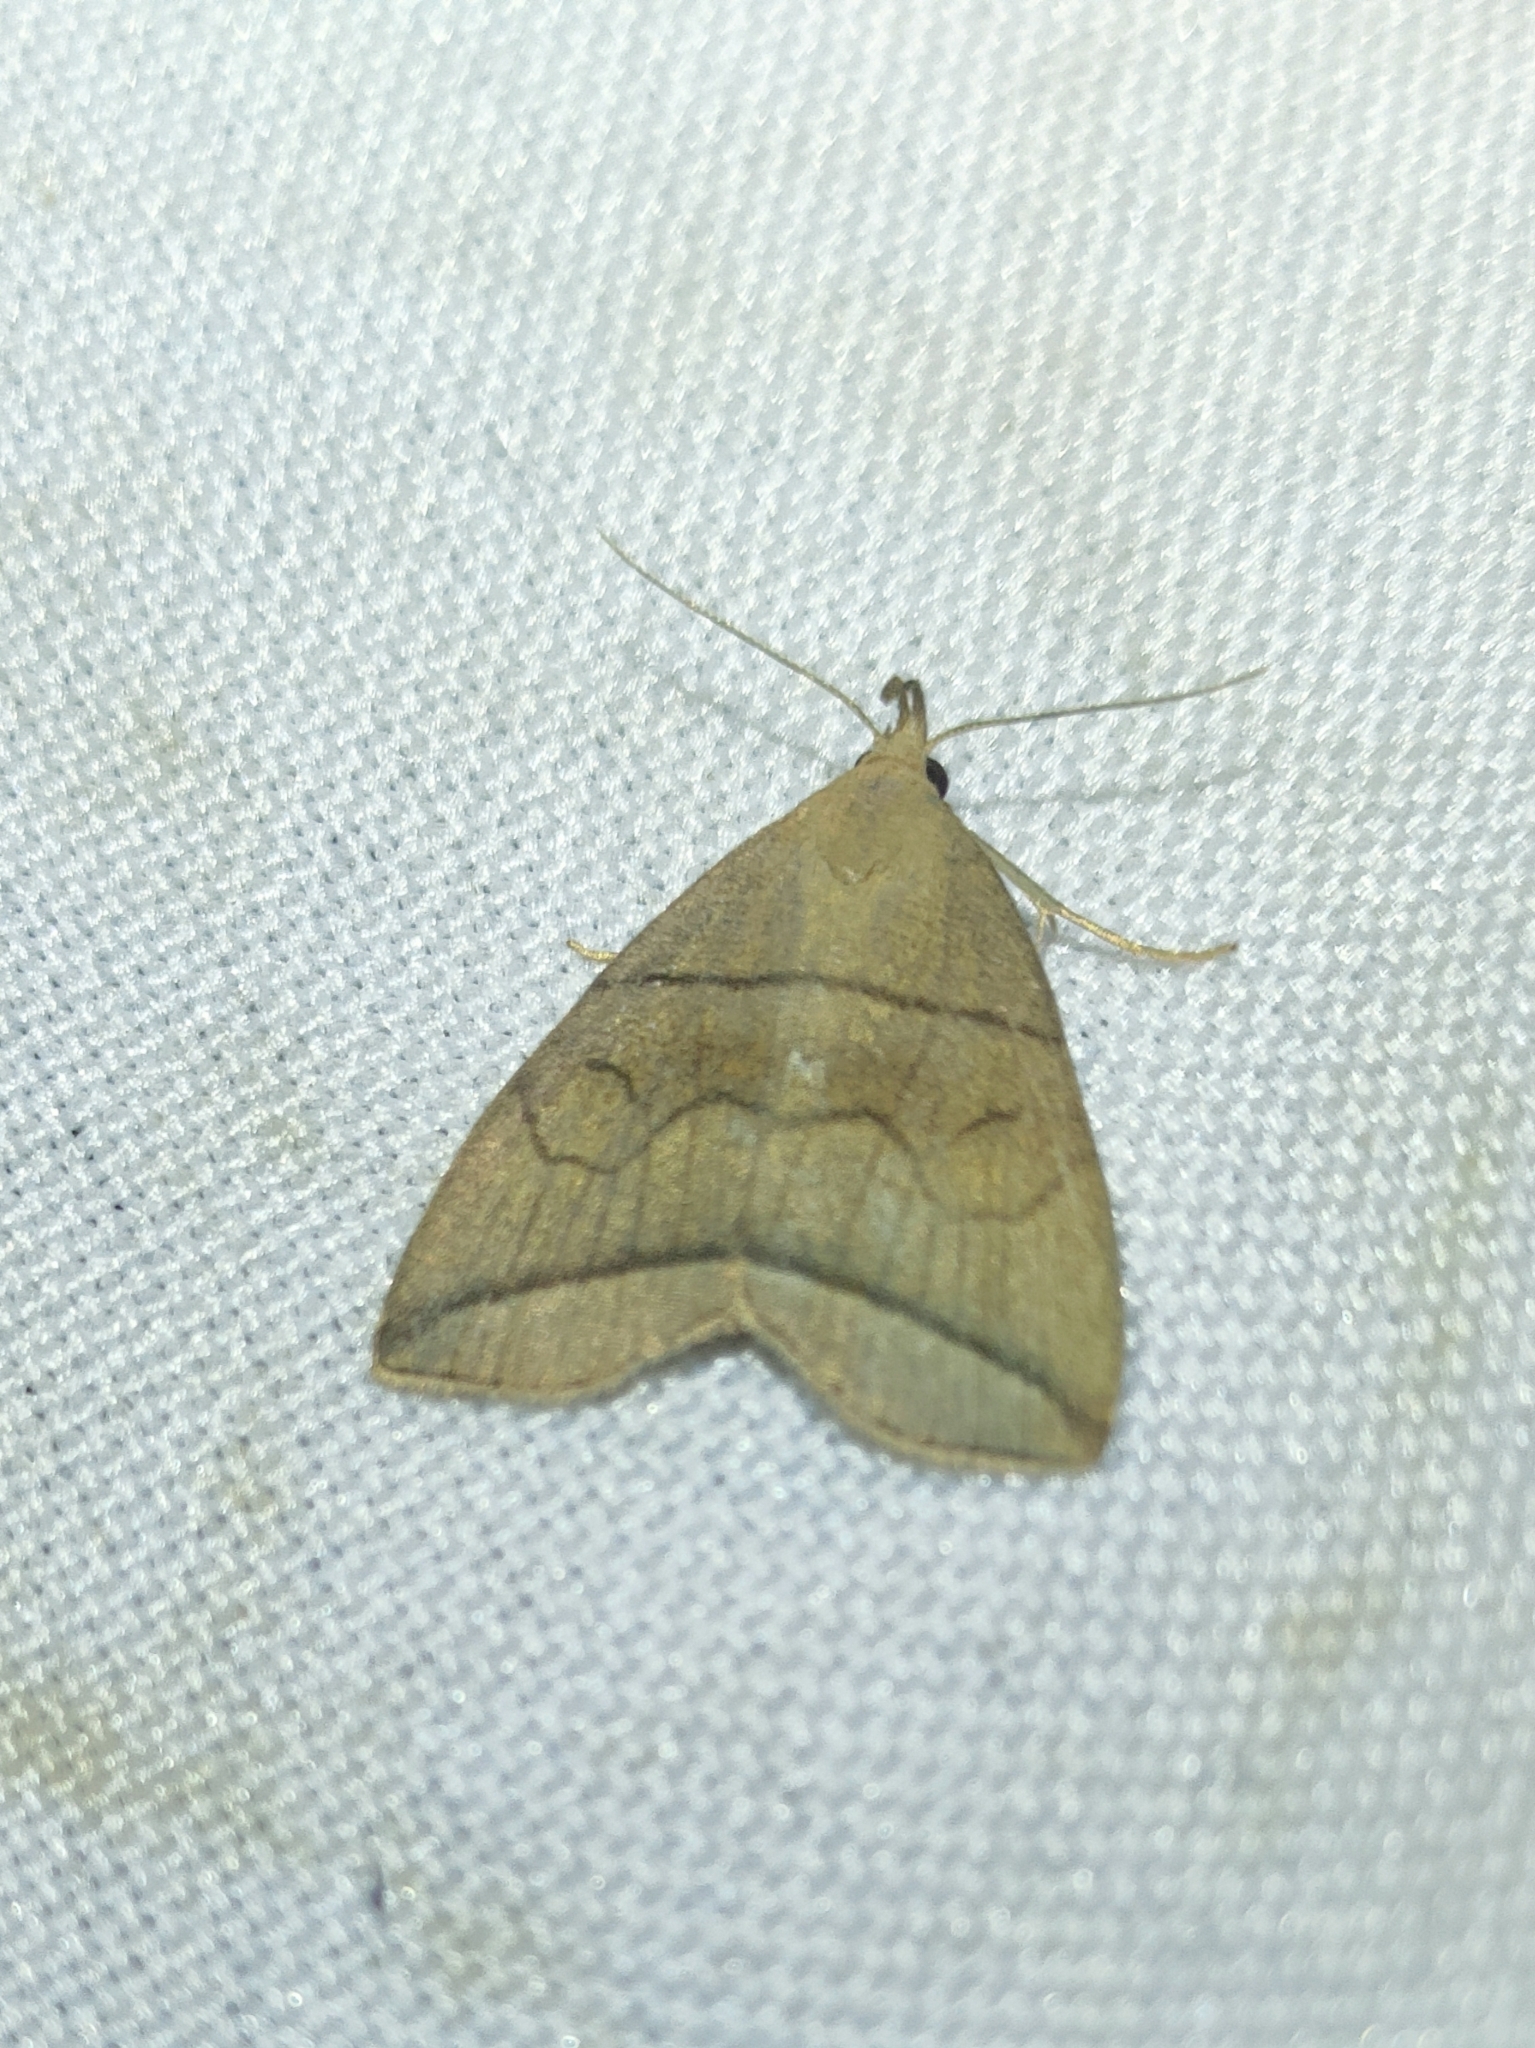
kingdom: Animalia
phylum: Arthropoda
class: Insecta
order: Lepidoptera
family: Erebidae
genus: Herminia
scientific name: Herminia grisealis
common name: Small fan-foot
